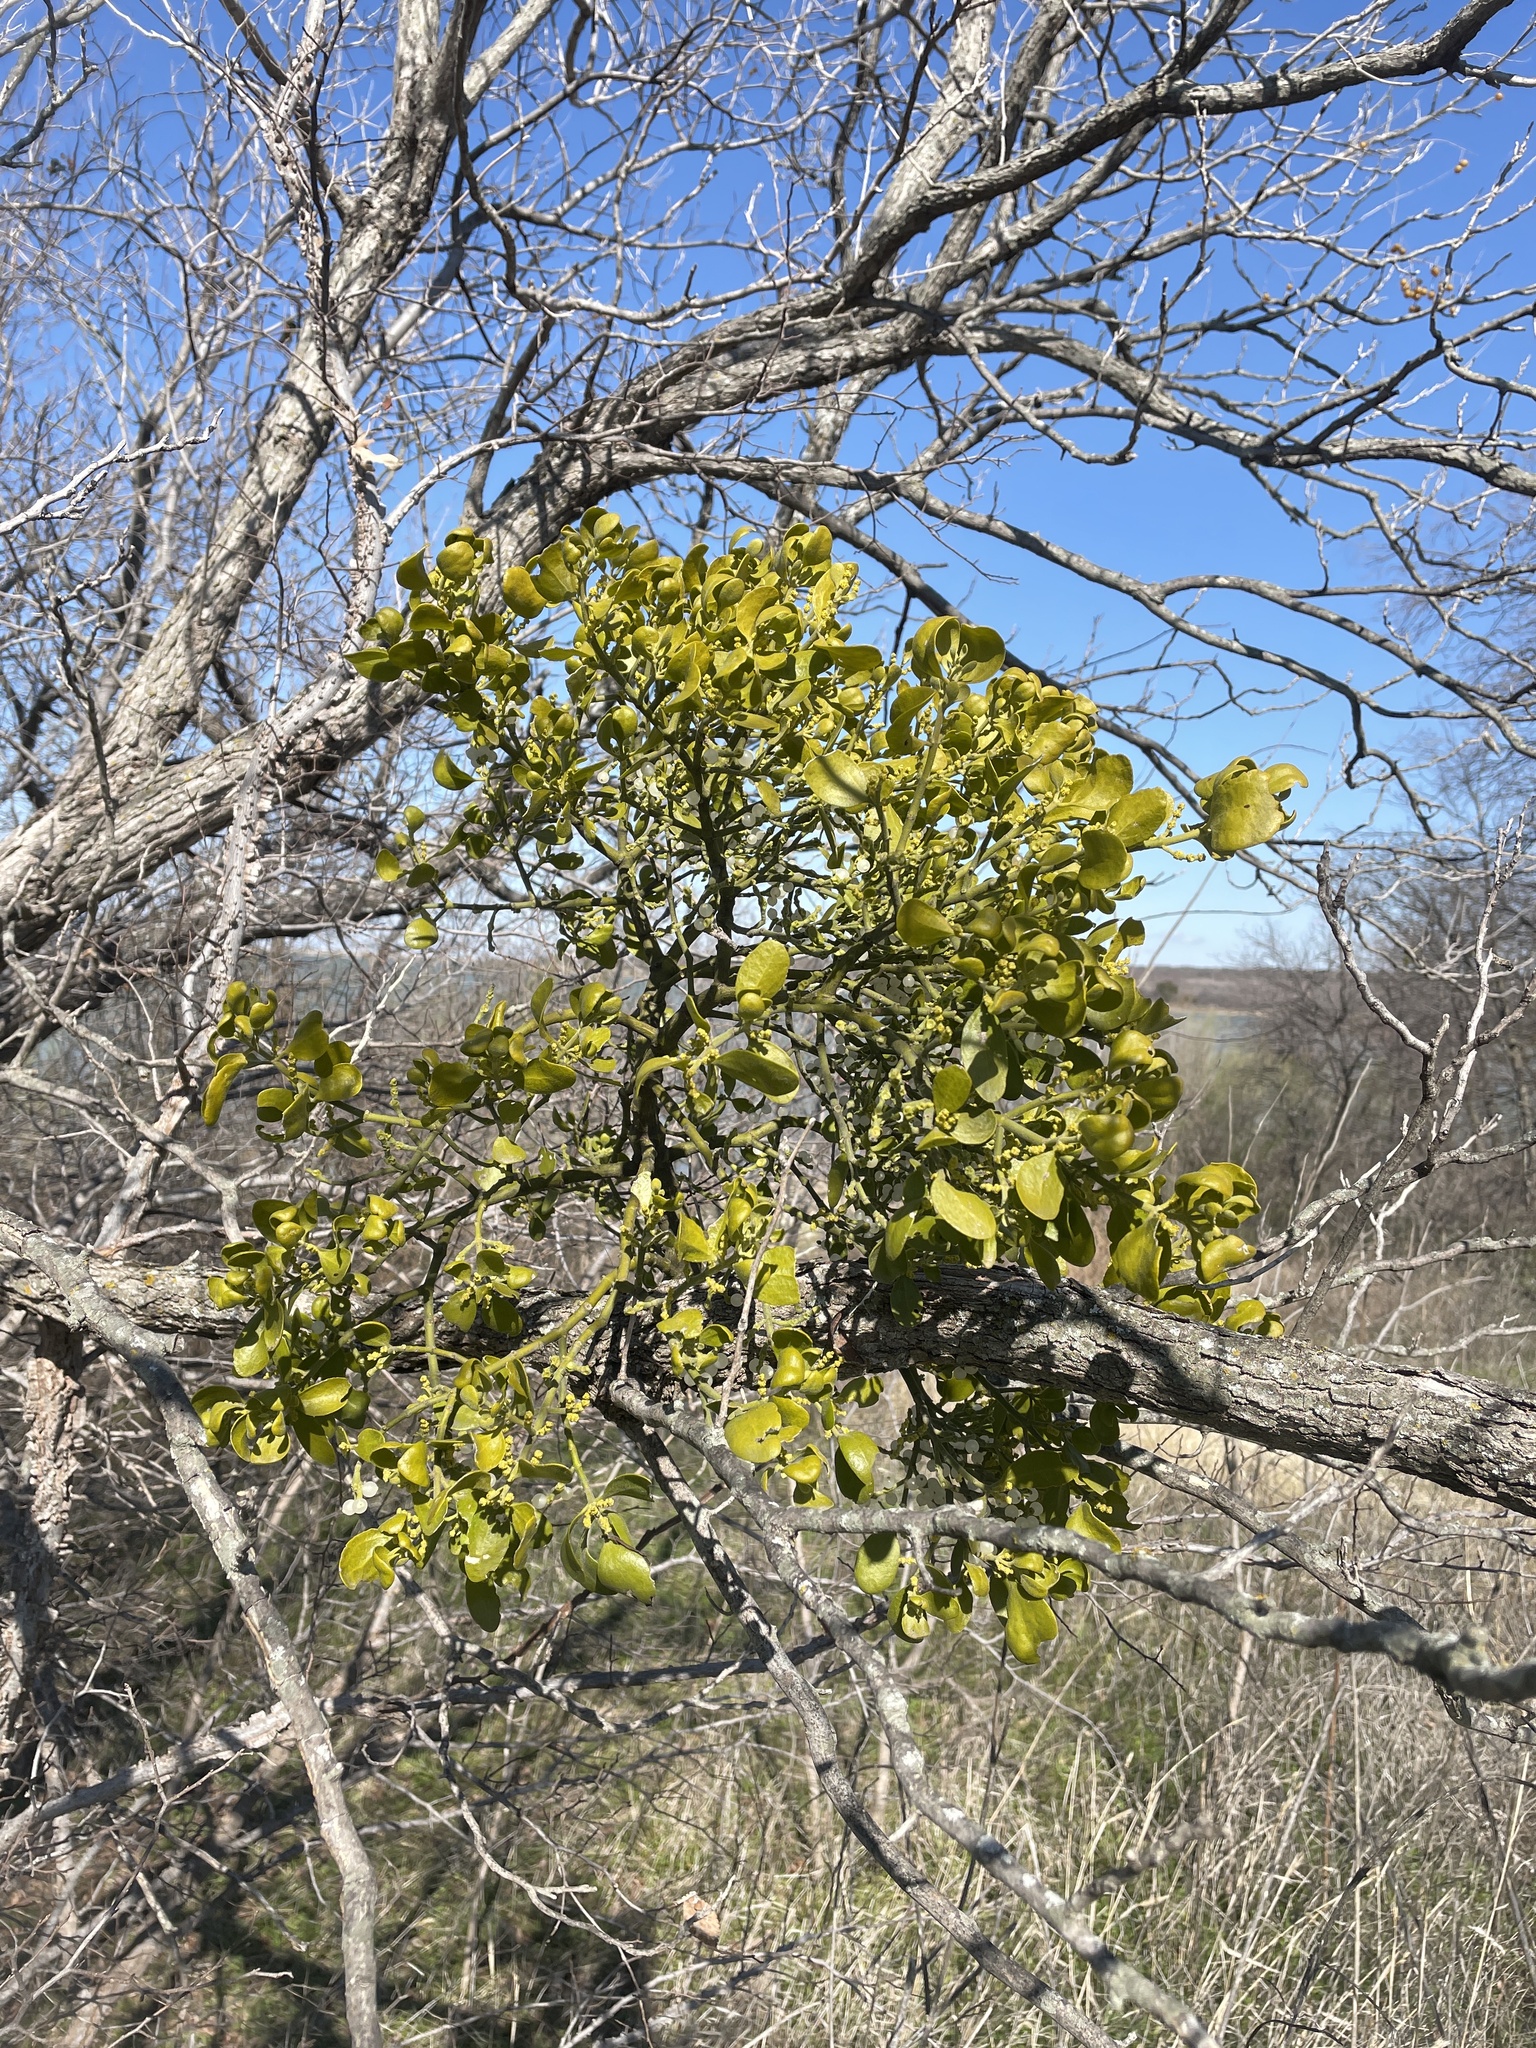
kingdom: Plantae
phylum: Tracheophyta
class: Magnoliopsida
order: Santalales
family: Viscaceae
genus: Phoradendron
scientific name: Phoradendron leucarpum
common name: Pacific mistletoe
